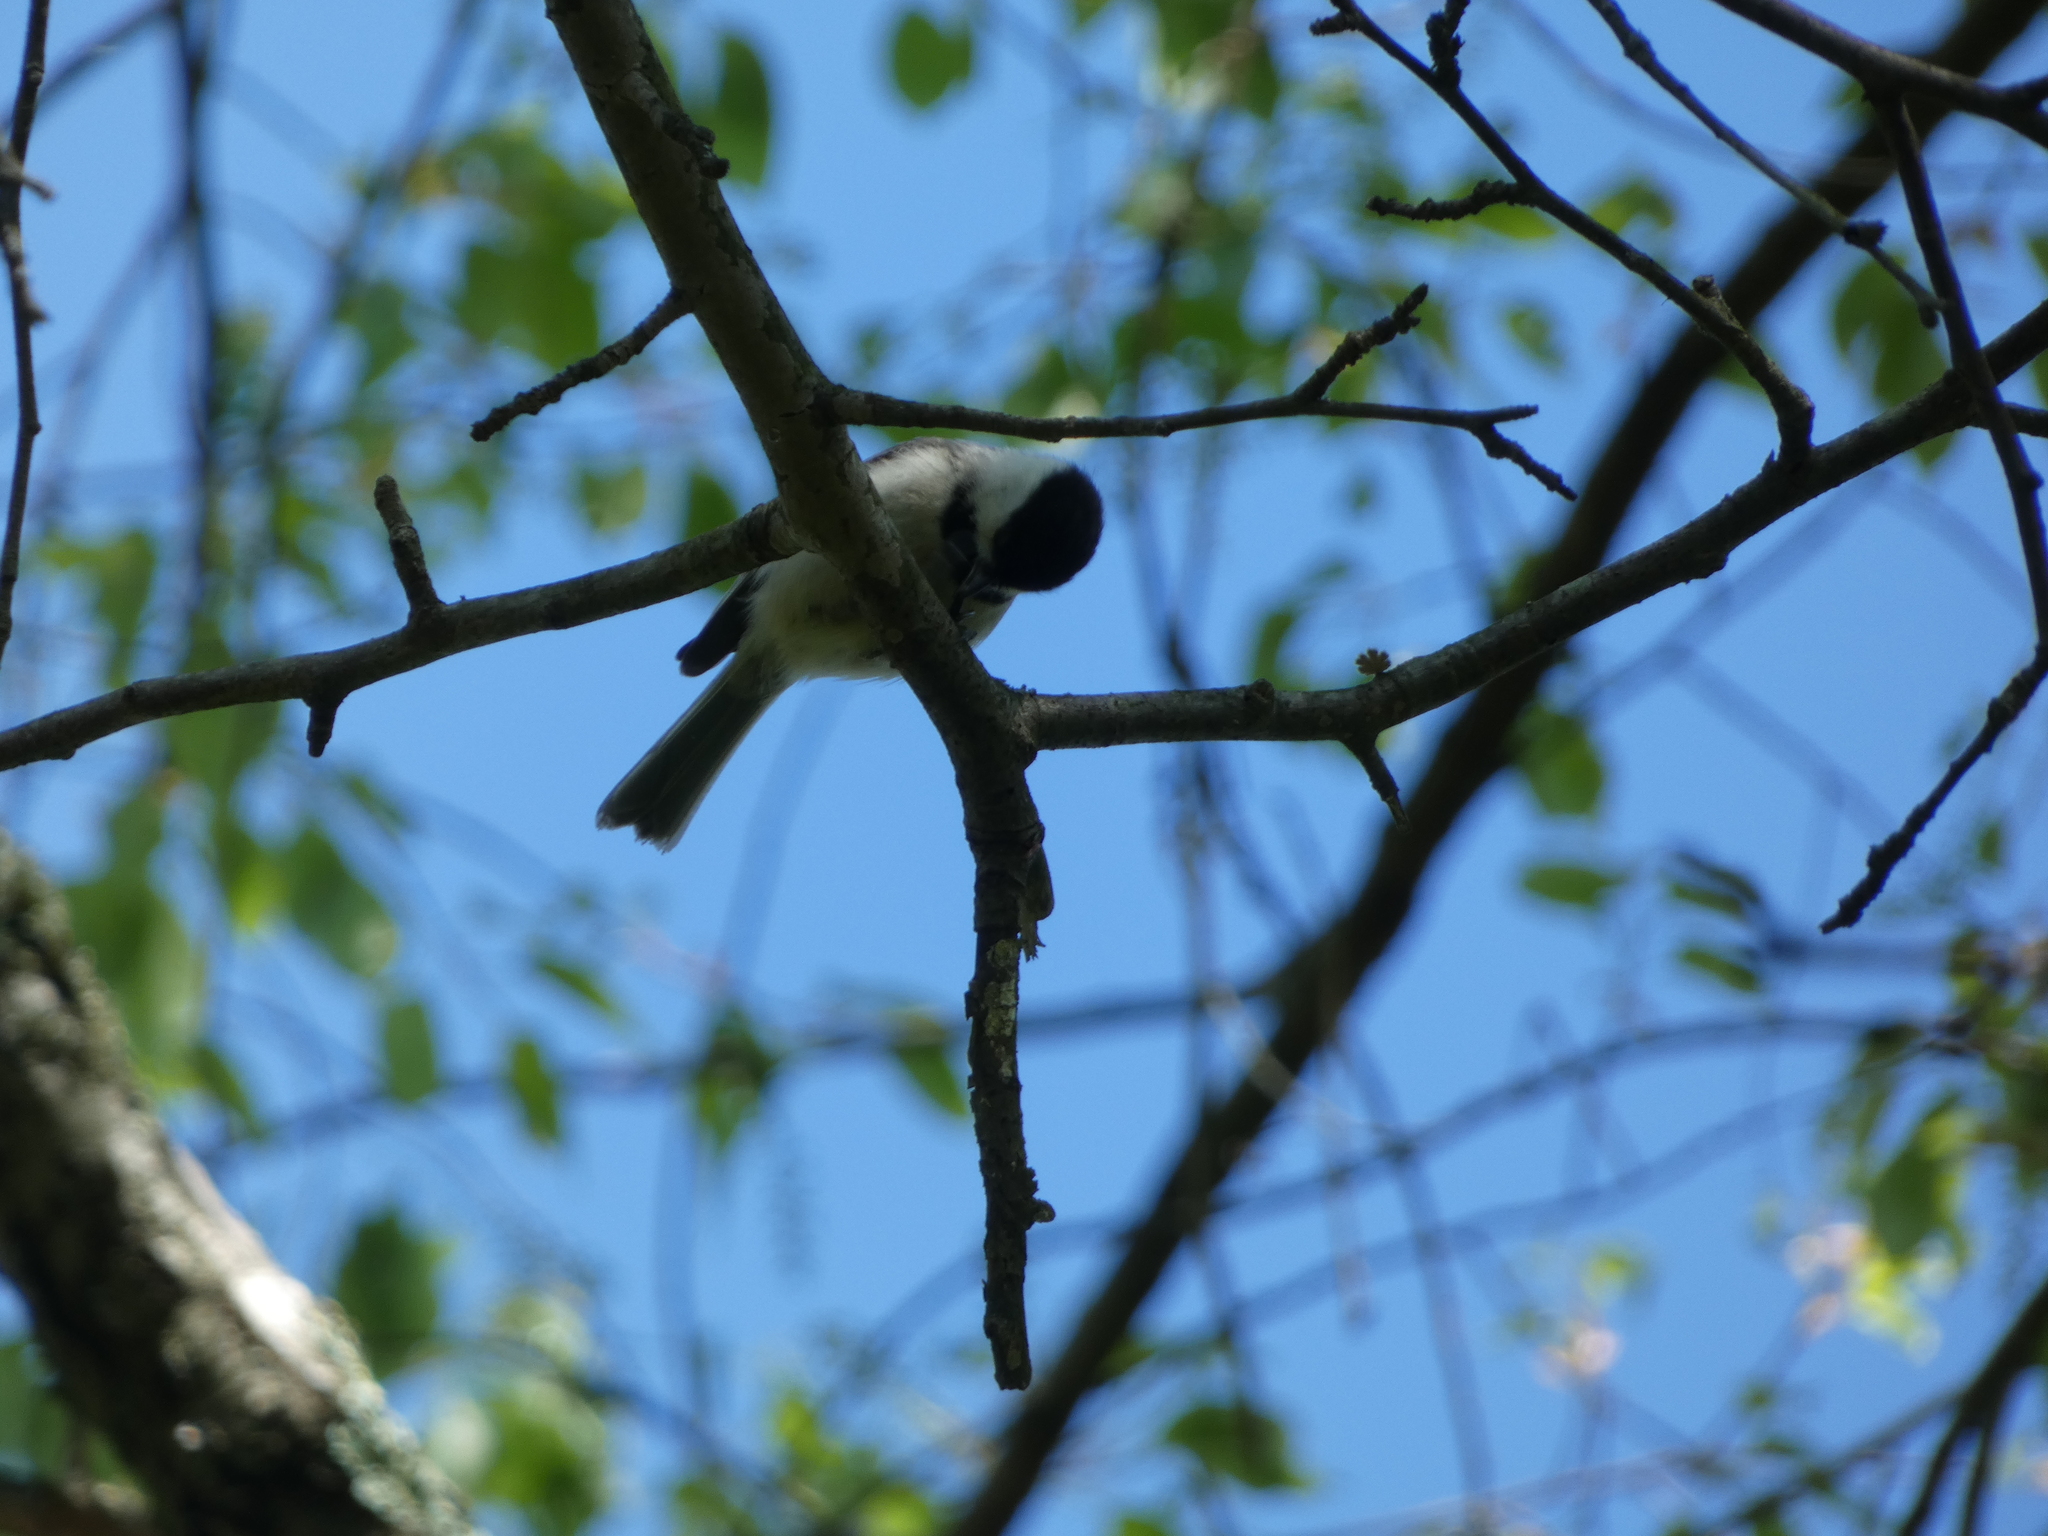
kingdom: Animalia
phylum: Chordata
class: Aves
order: Passeriformes
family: Paridae
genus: Poecile
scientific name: Poecile
